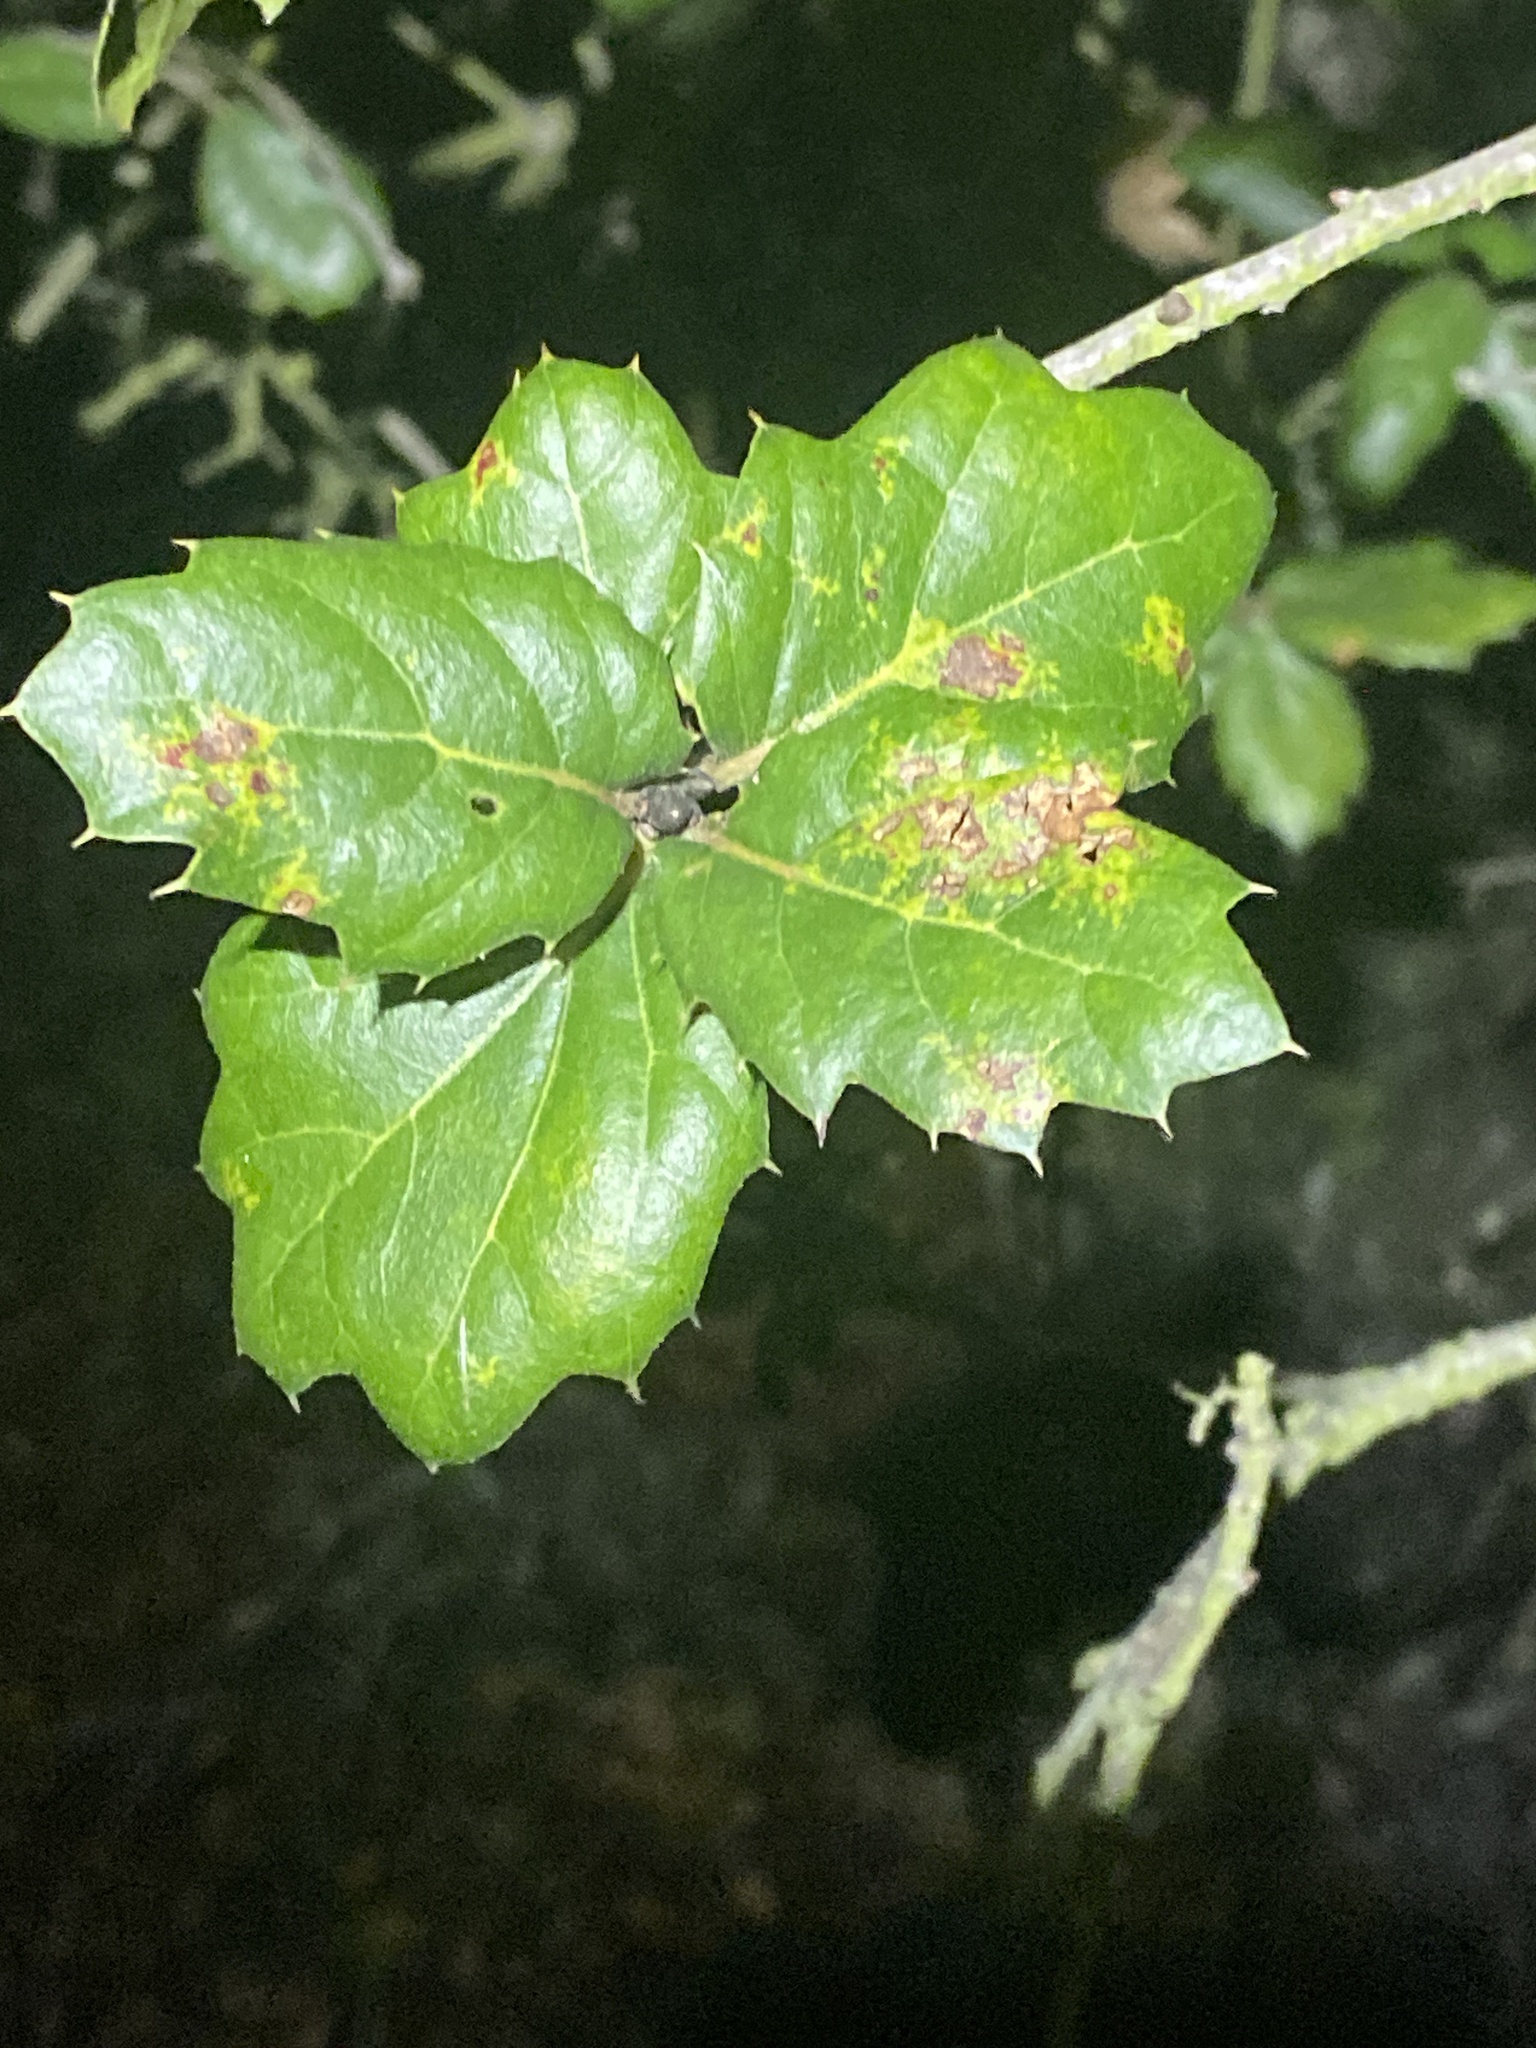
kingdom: Plantae
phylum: Tracheophyta
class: Magnoliopsida
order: Fagales
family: Fagaceae
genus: Quercus
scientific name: Quercus agrifolia
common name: California live oak
